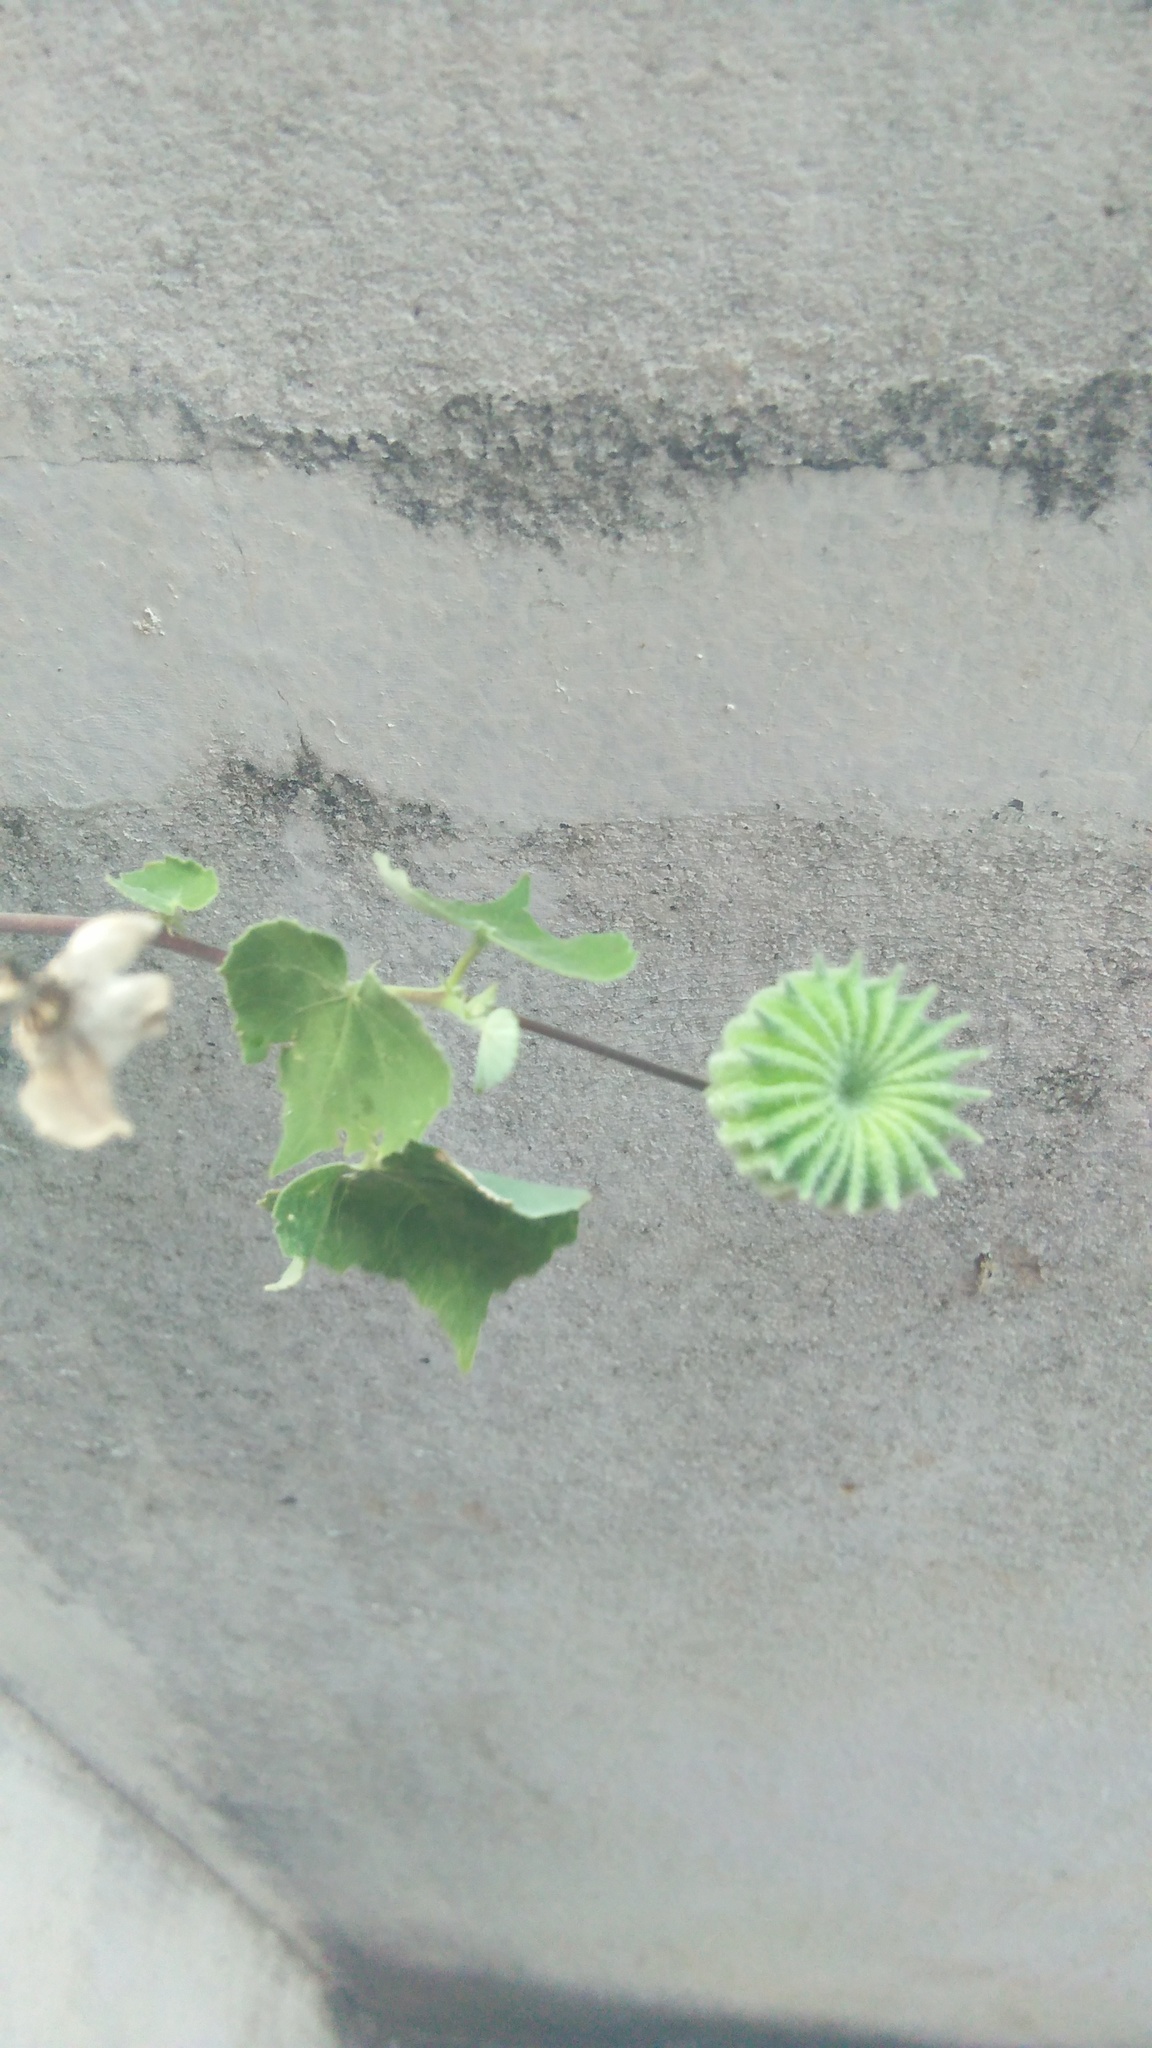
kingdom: Plantae
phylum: Tracheophyta
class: Magnoliopsida
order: Malvales
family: Malvaceae
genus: Abutilon
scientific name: Abutilon indicum
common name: Indian abutilon
